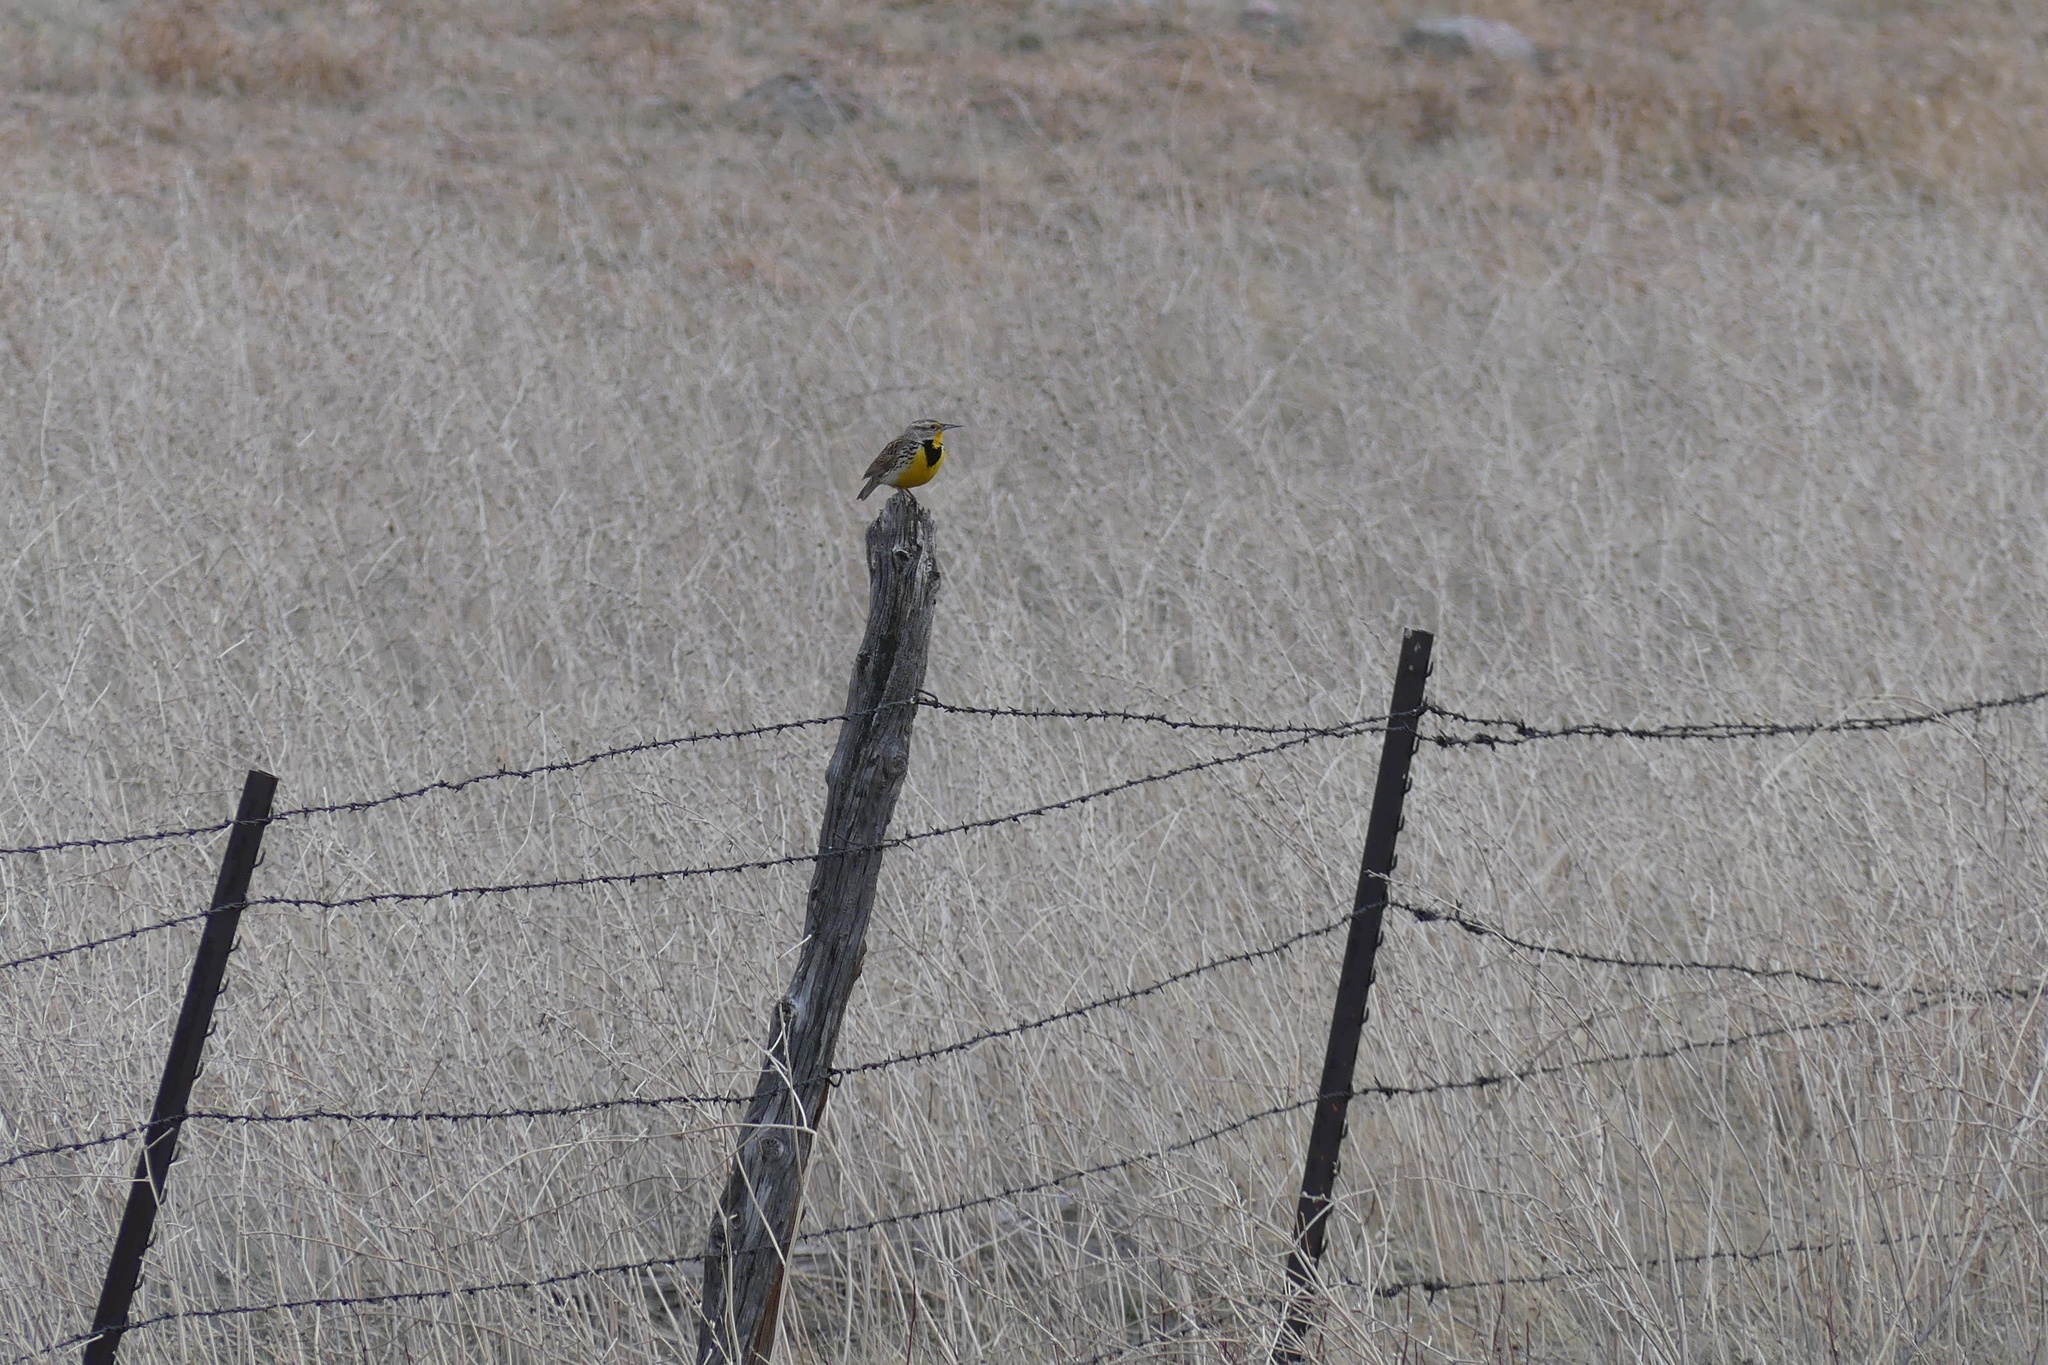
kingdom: Animalia
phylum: Chordata
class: Aves
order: Passeriformes
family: Icteridae
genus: Sturnella
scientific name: Sturnella neglecta
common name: Western meadowlark
